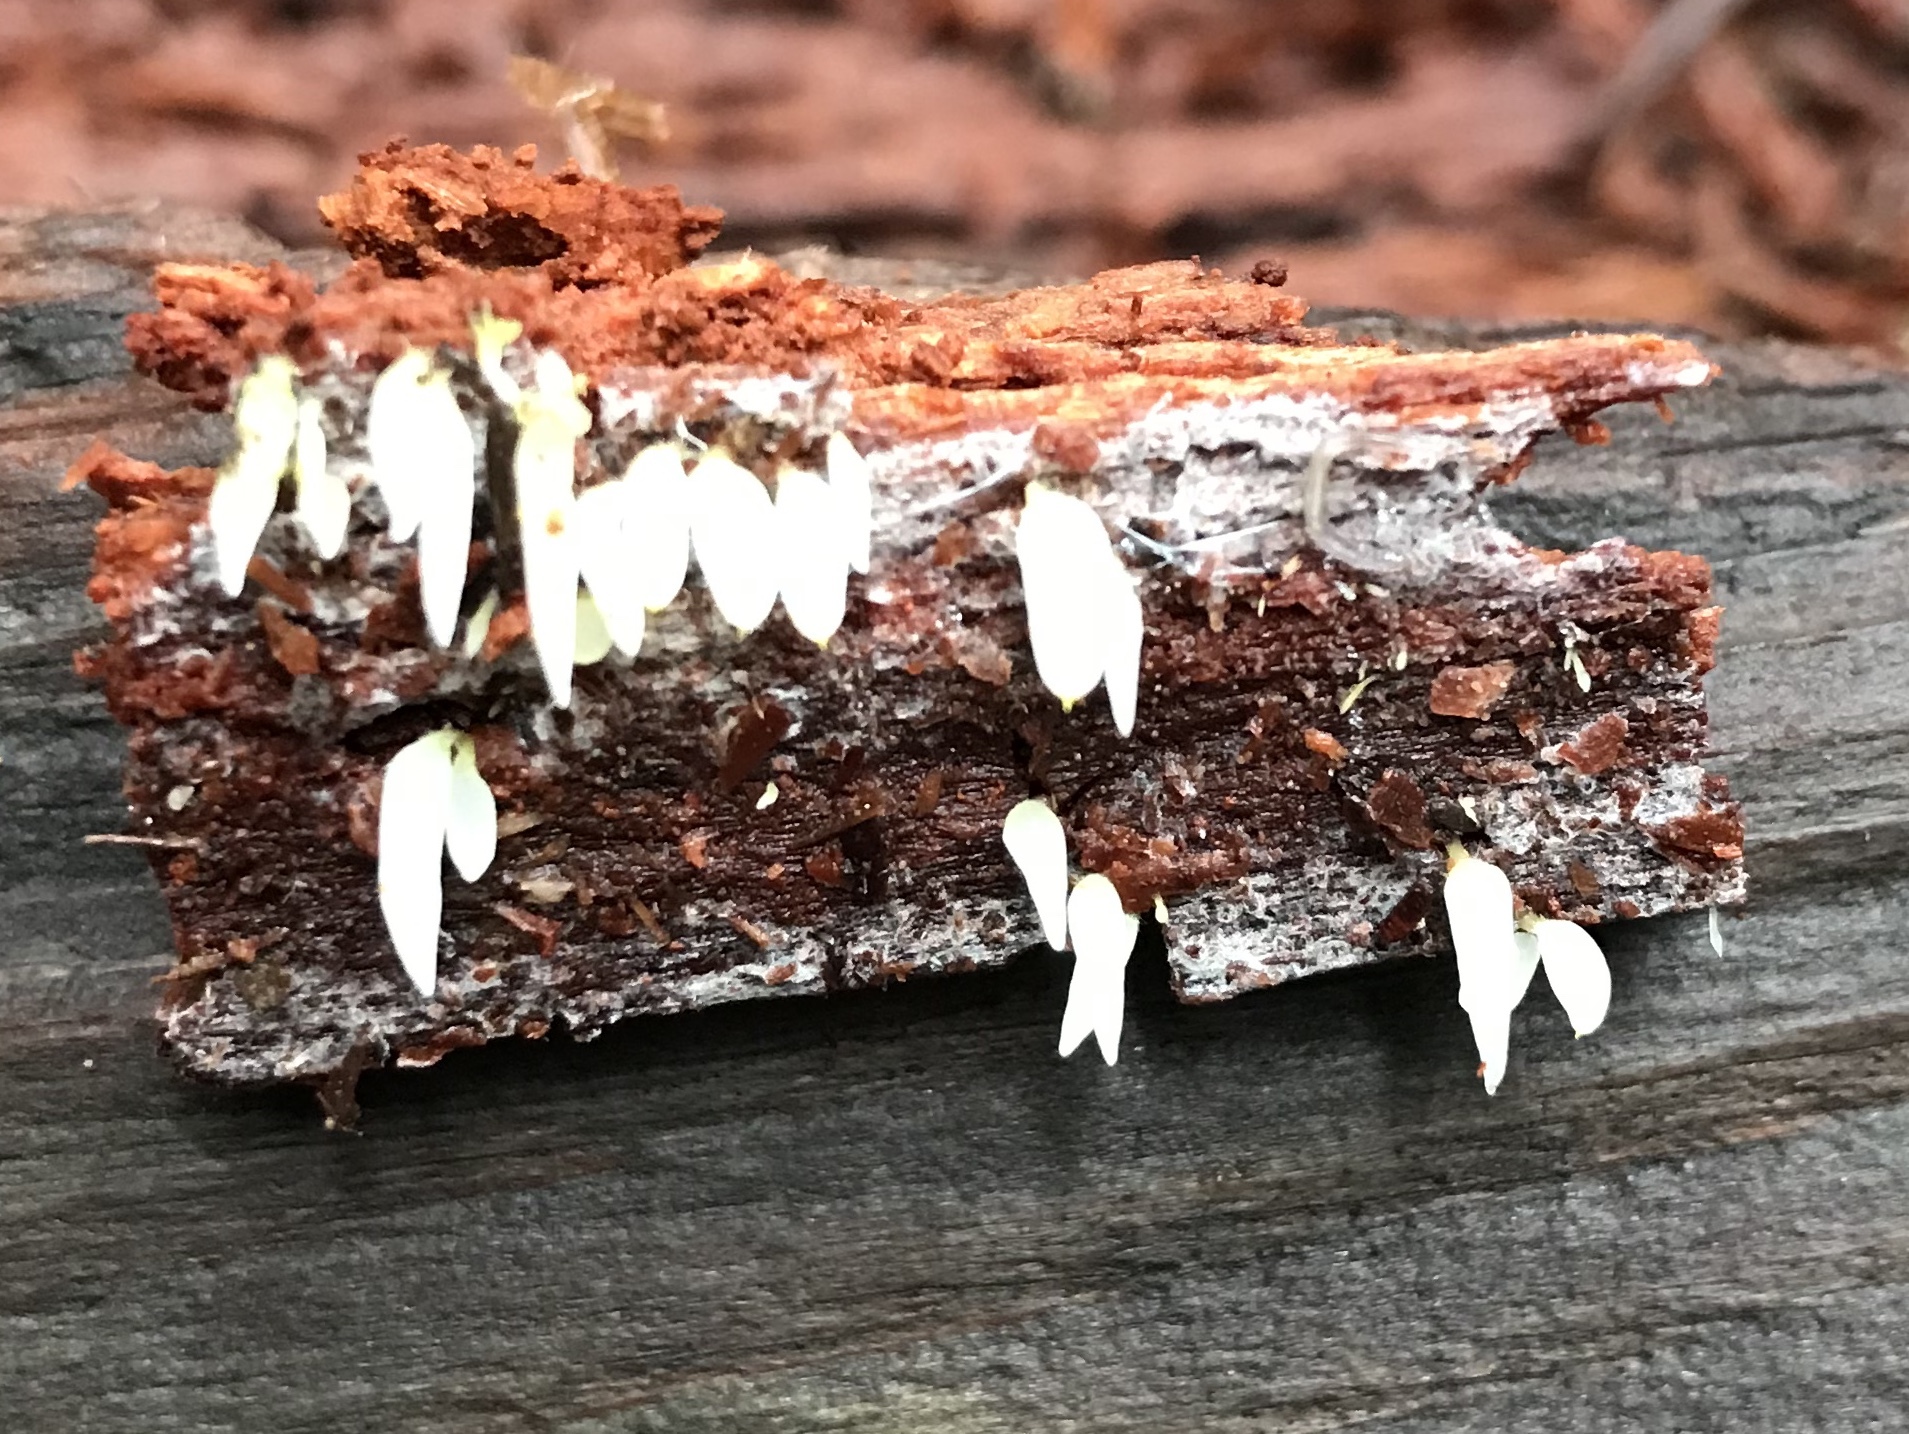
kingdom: Fungi
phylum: Basidiomycota
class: Agaricomycetes
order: Agaricales
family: Clavariaceae
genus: Mucronella
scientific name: Mucronella fusiformis
